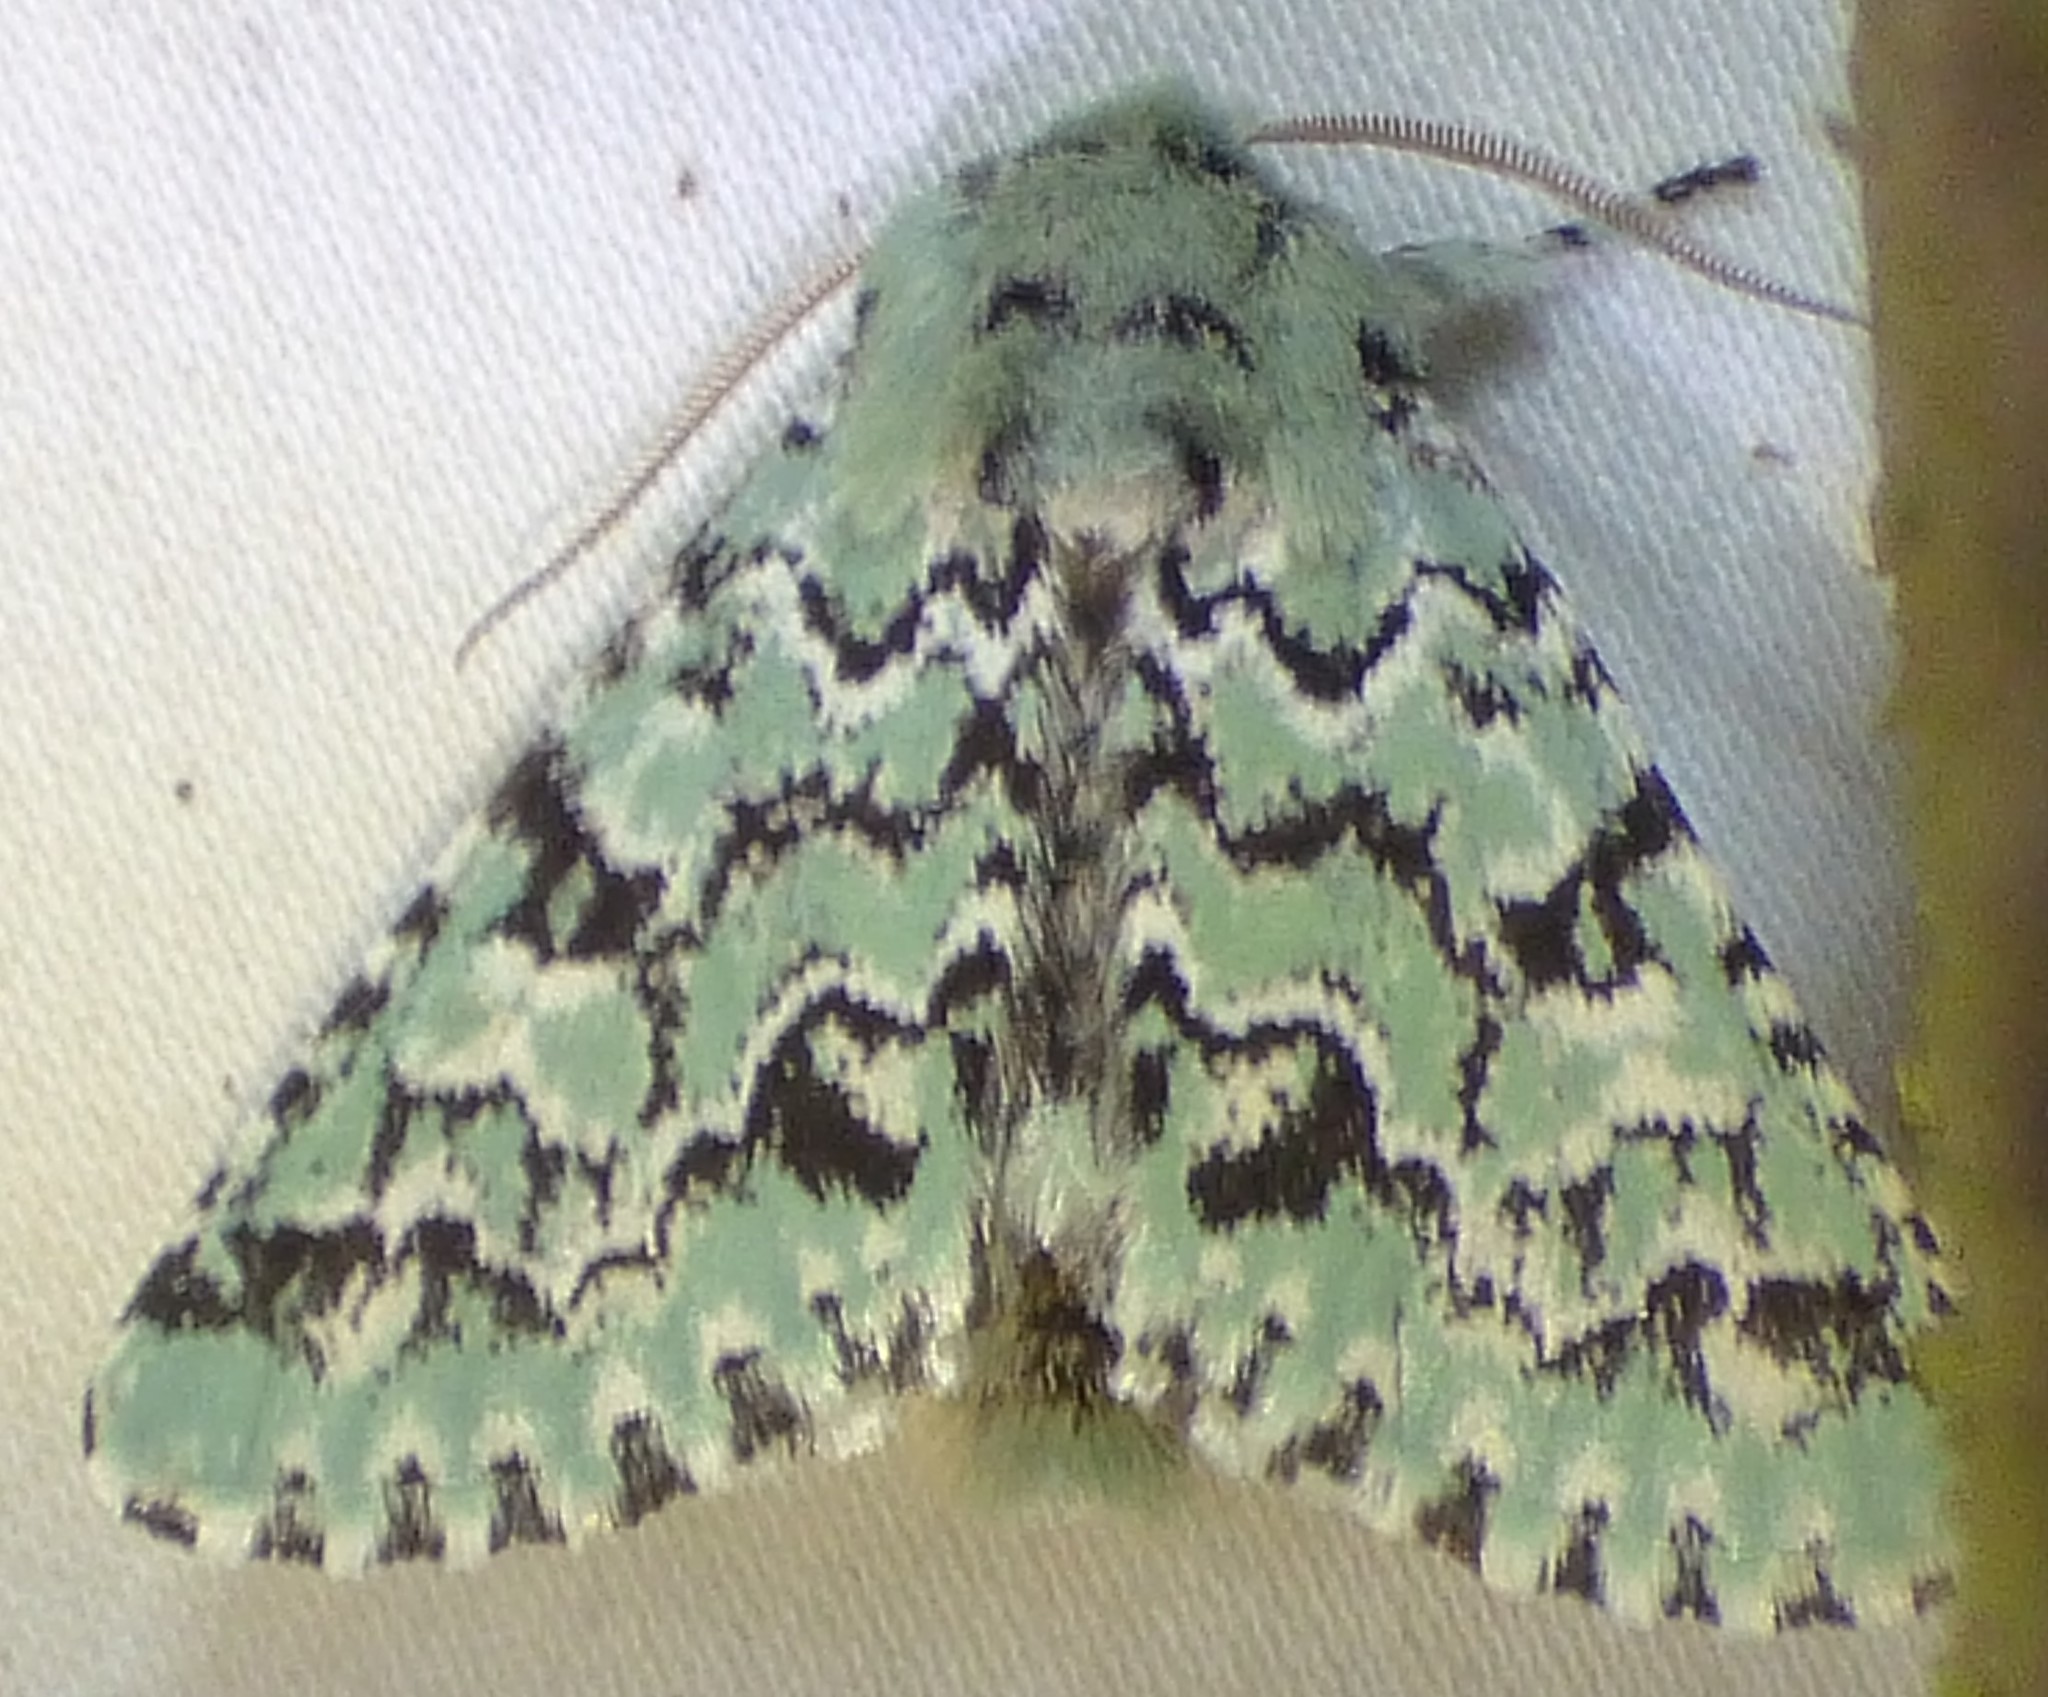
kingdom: Animalia
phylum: Arthropoda
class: Insecta
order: Lepidoptera
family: Noctuidae
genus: Feralia
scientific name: Feralia major
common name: Major sallow
